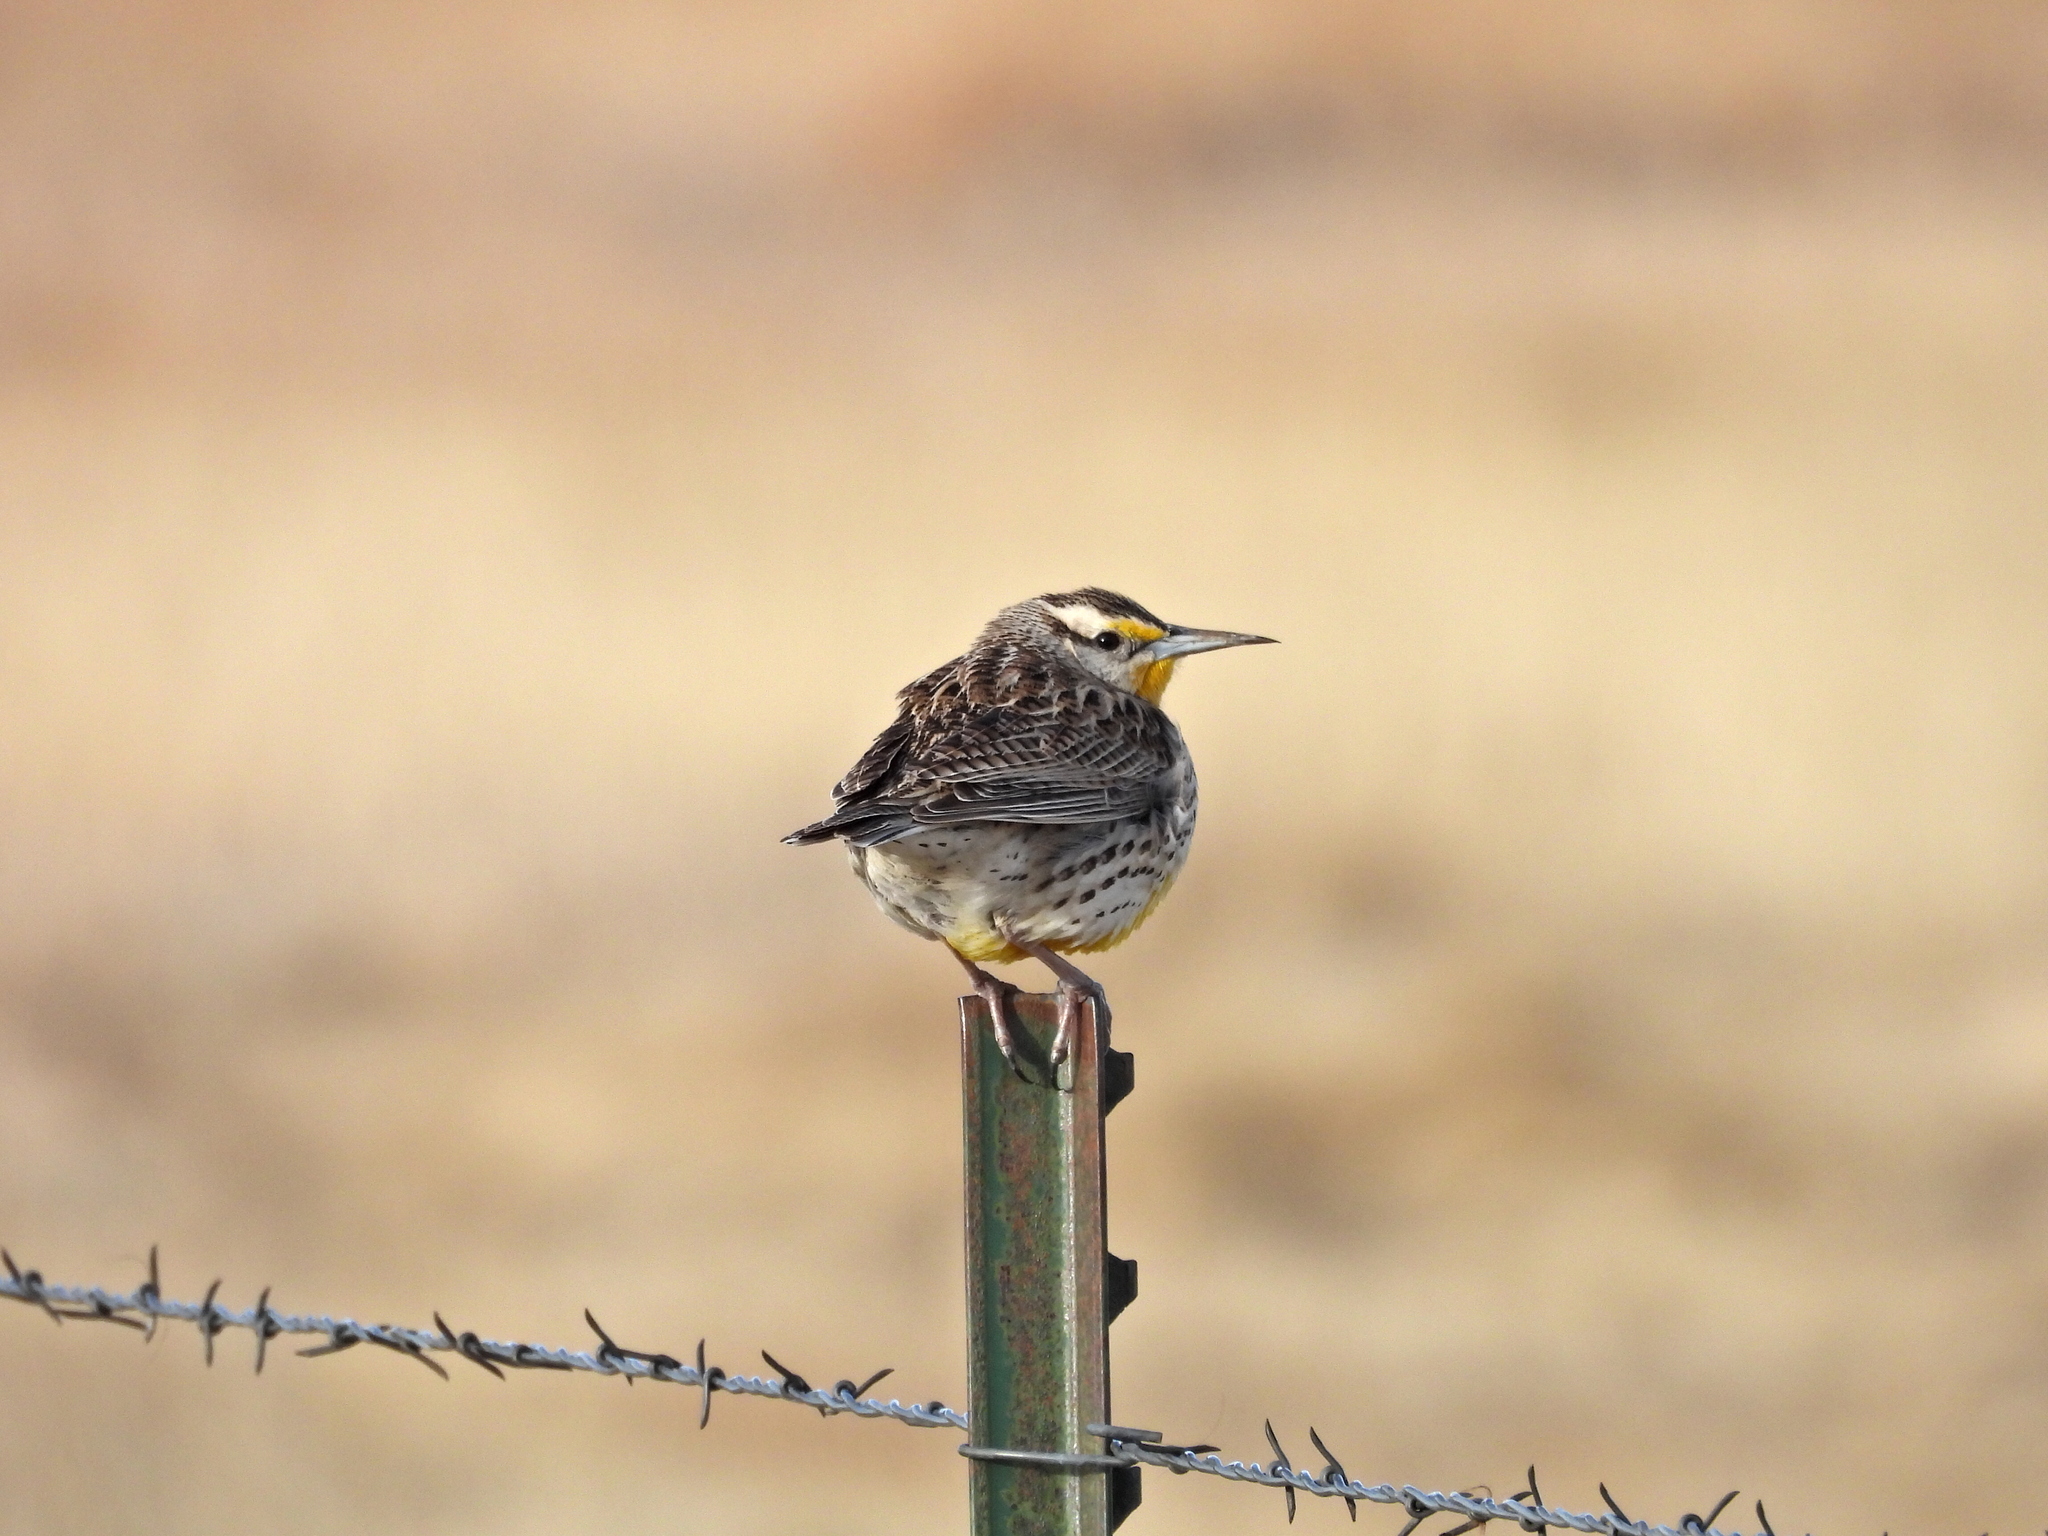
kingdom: Animalia
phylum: Chordata
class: Aves
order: Passeriformes
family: Icteridae
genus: Sturnella
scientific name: Sturnella neglecta
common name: Western meadowlark
